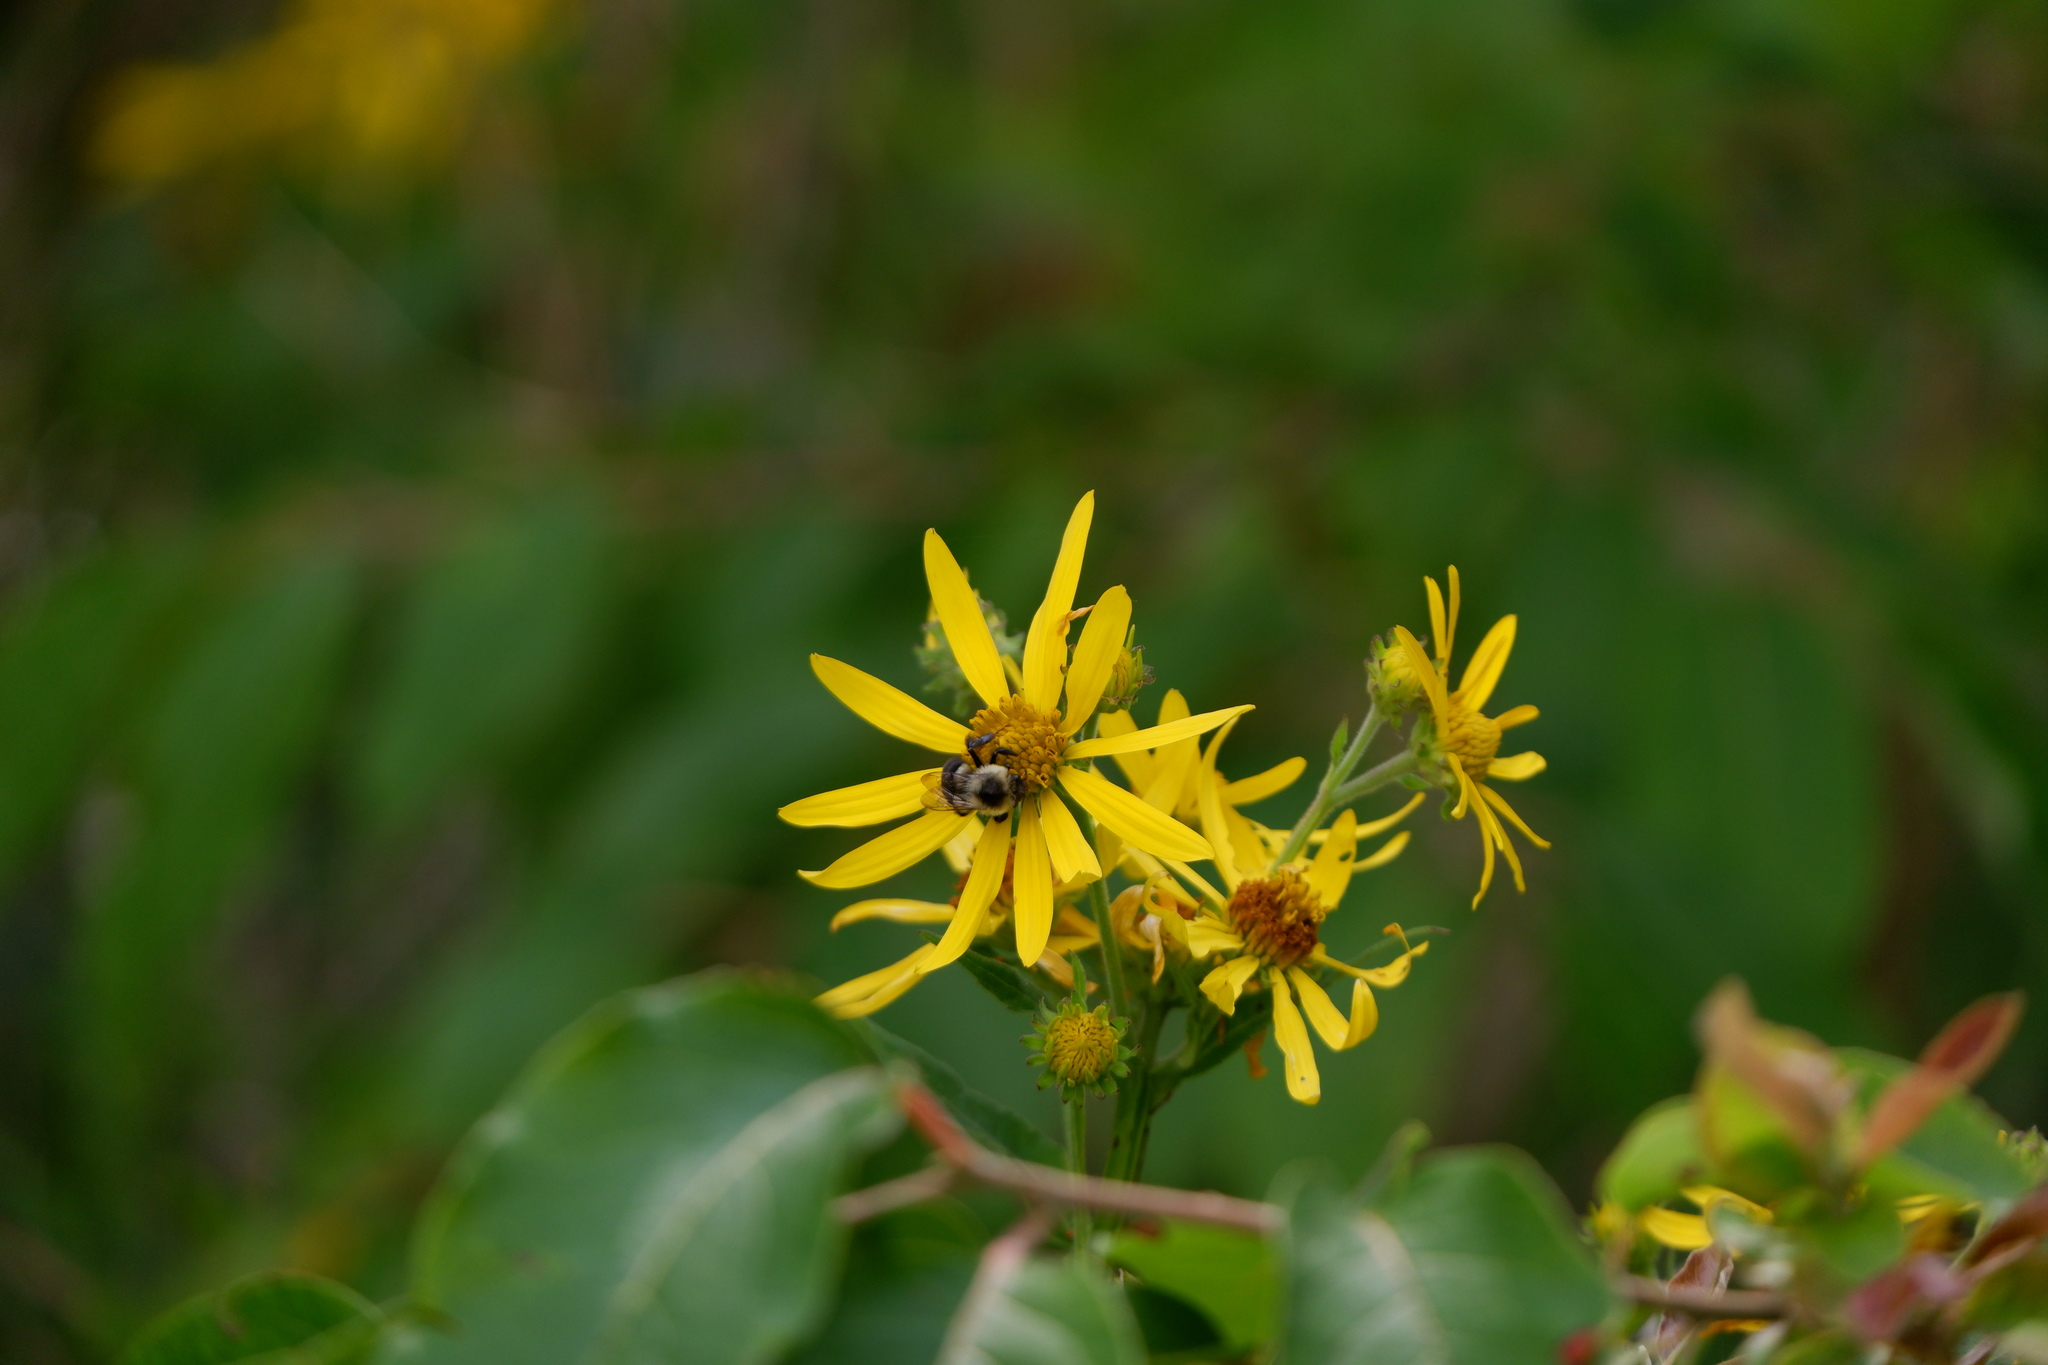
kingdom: Animalia
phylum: Arthropoda
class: Insecta
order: Hymenoptera
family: Apidae
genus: Bombus
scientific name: Bombus impatiens
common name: Common eastern bumble bee
